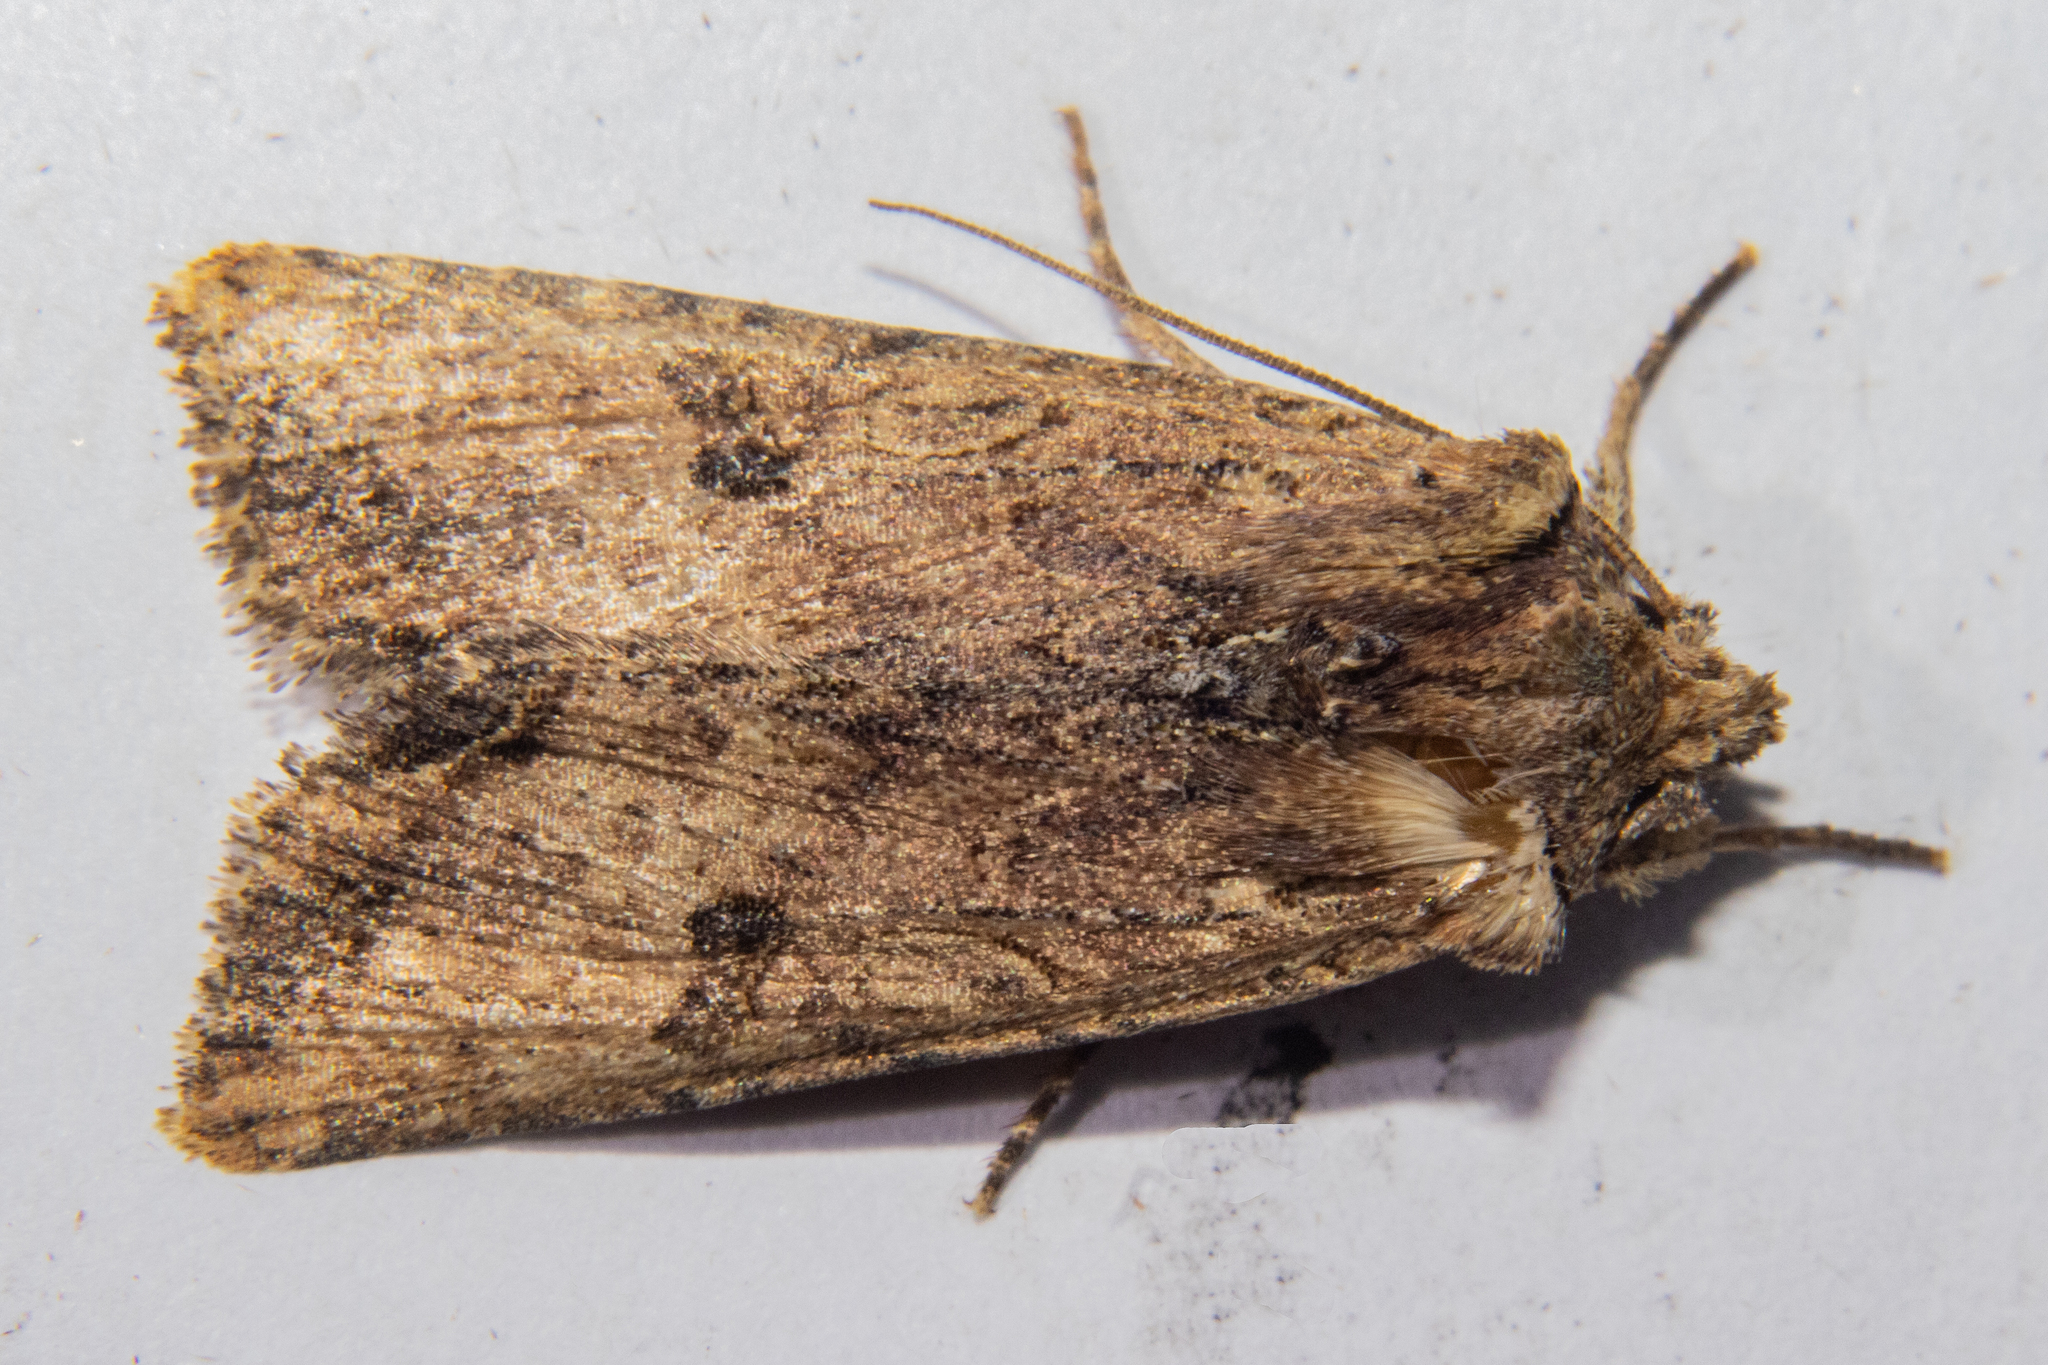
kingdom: Animalia
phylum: Arthropoda
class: Insecta
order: Lepidoptera
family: Noctuidae
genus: Meterana
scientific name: Meterana coeleno
